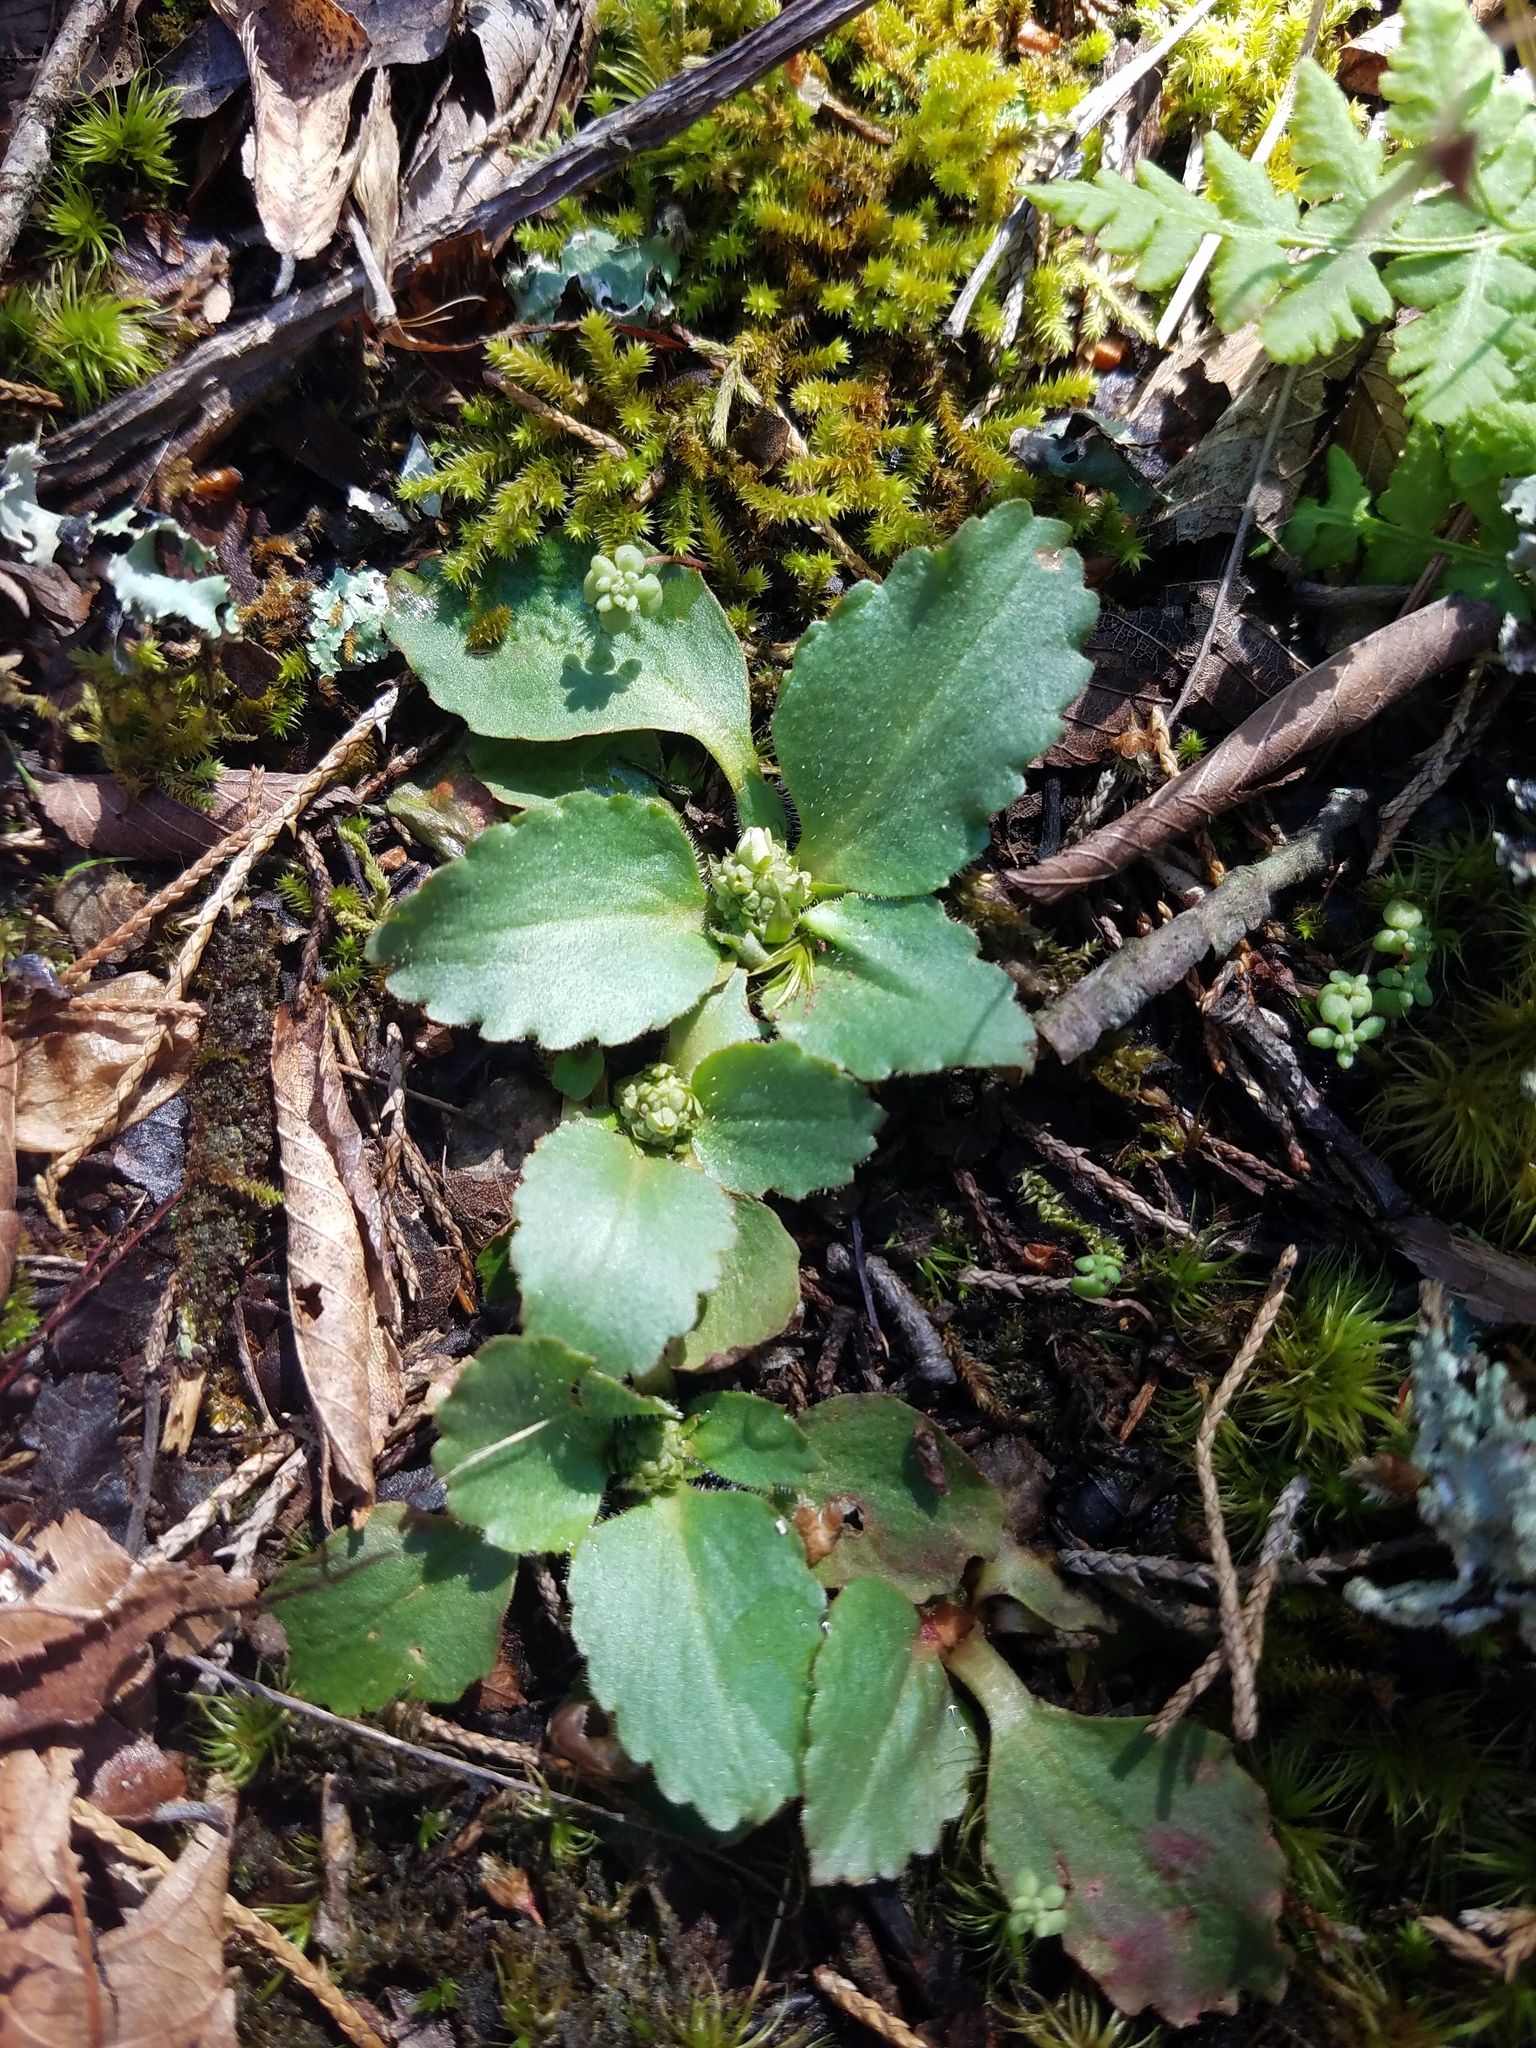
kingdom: Plantae
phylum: Tracheophyta
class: Magnoliopsida
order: Saxifragales
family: Saxifragaceae
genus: Micranthes
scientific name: Micranthes virginiensis
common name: Early saxifrage
